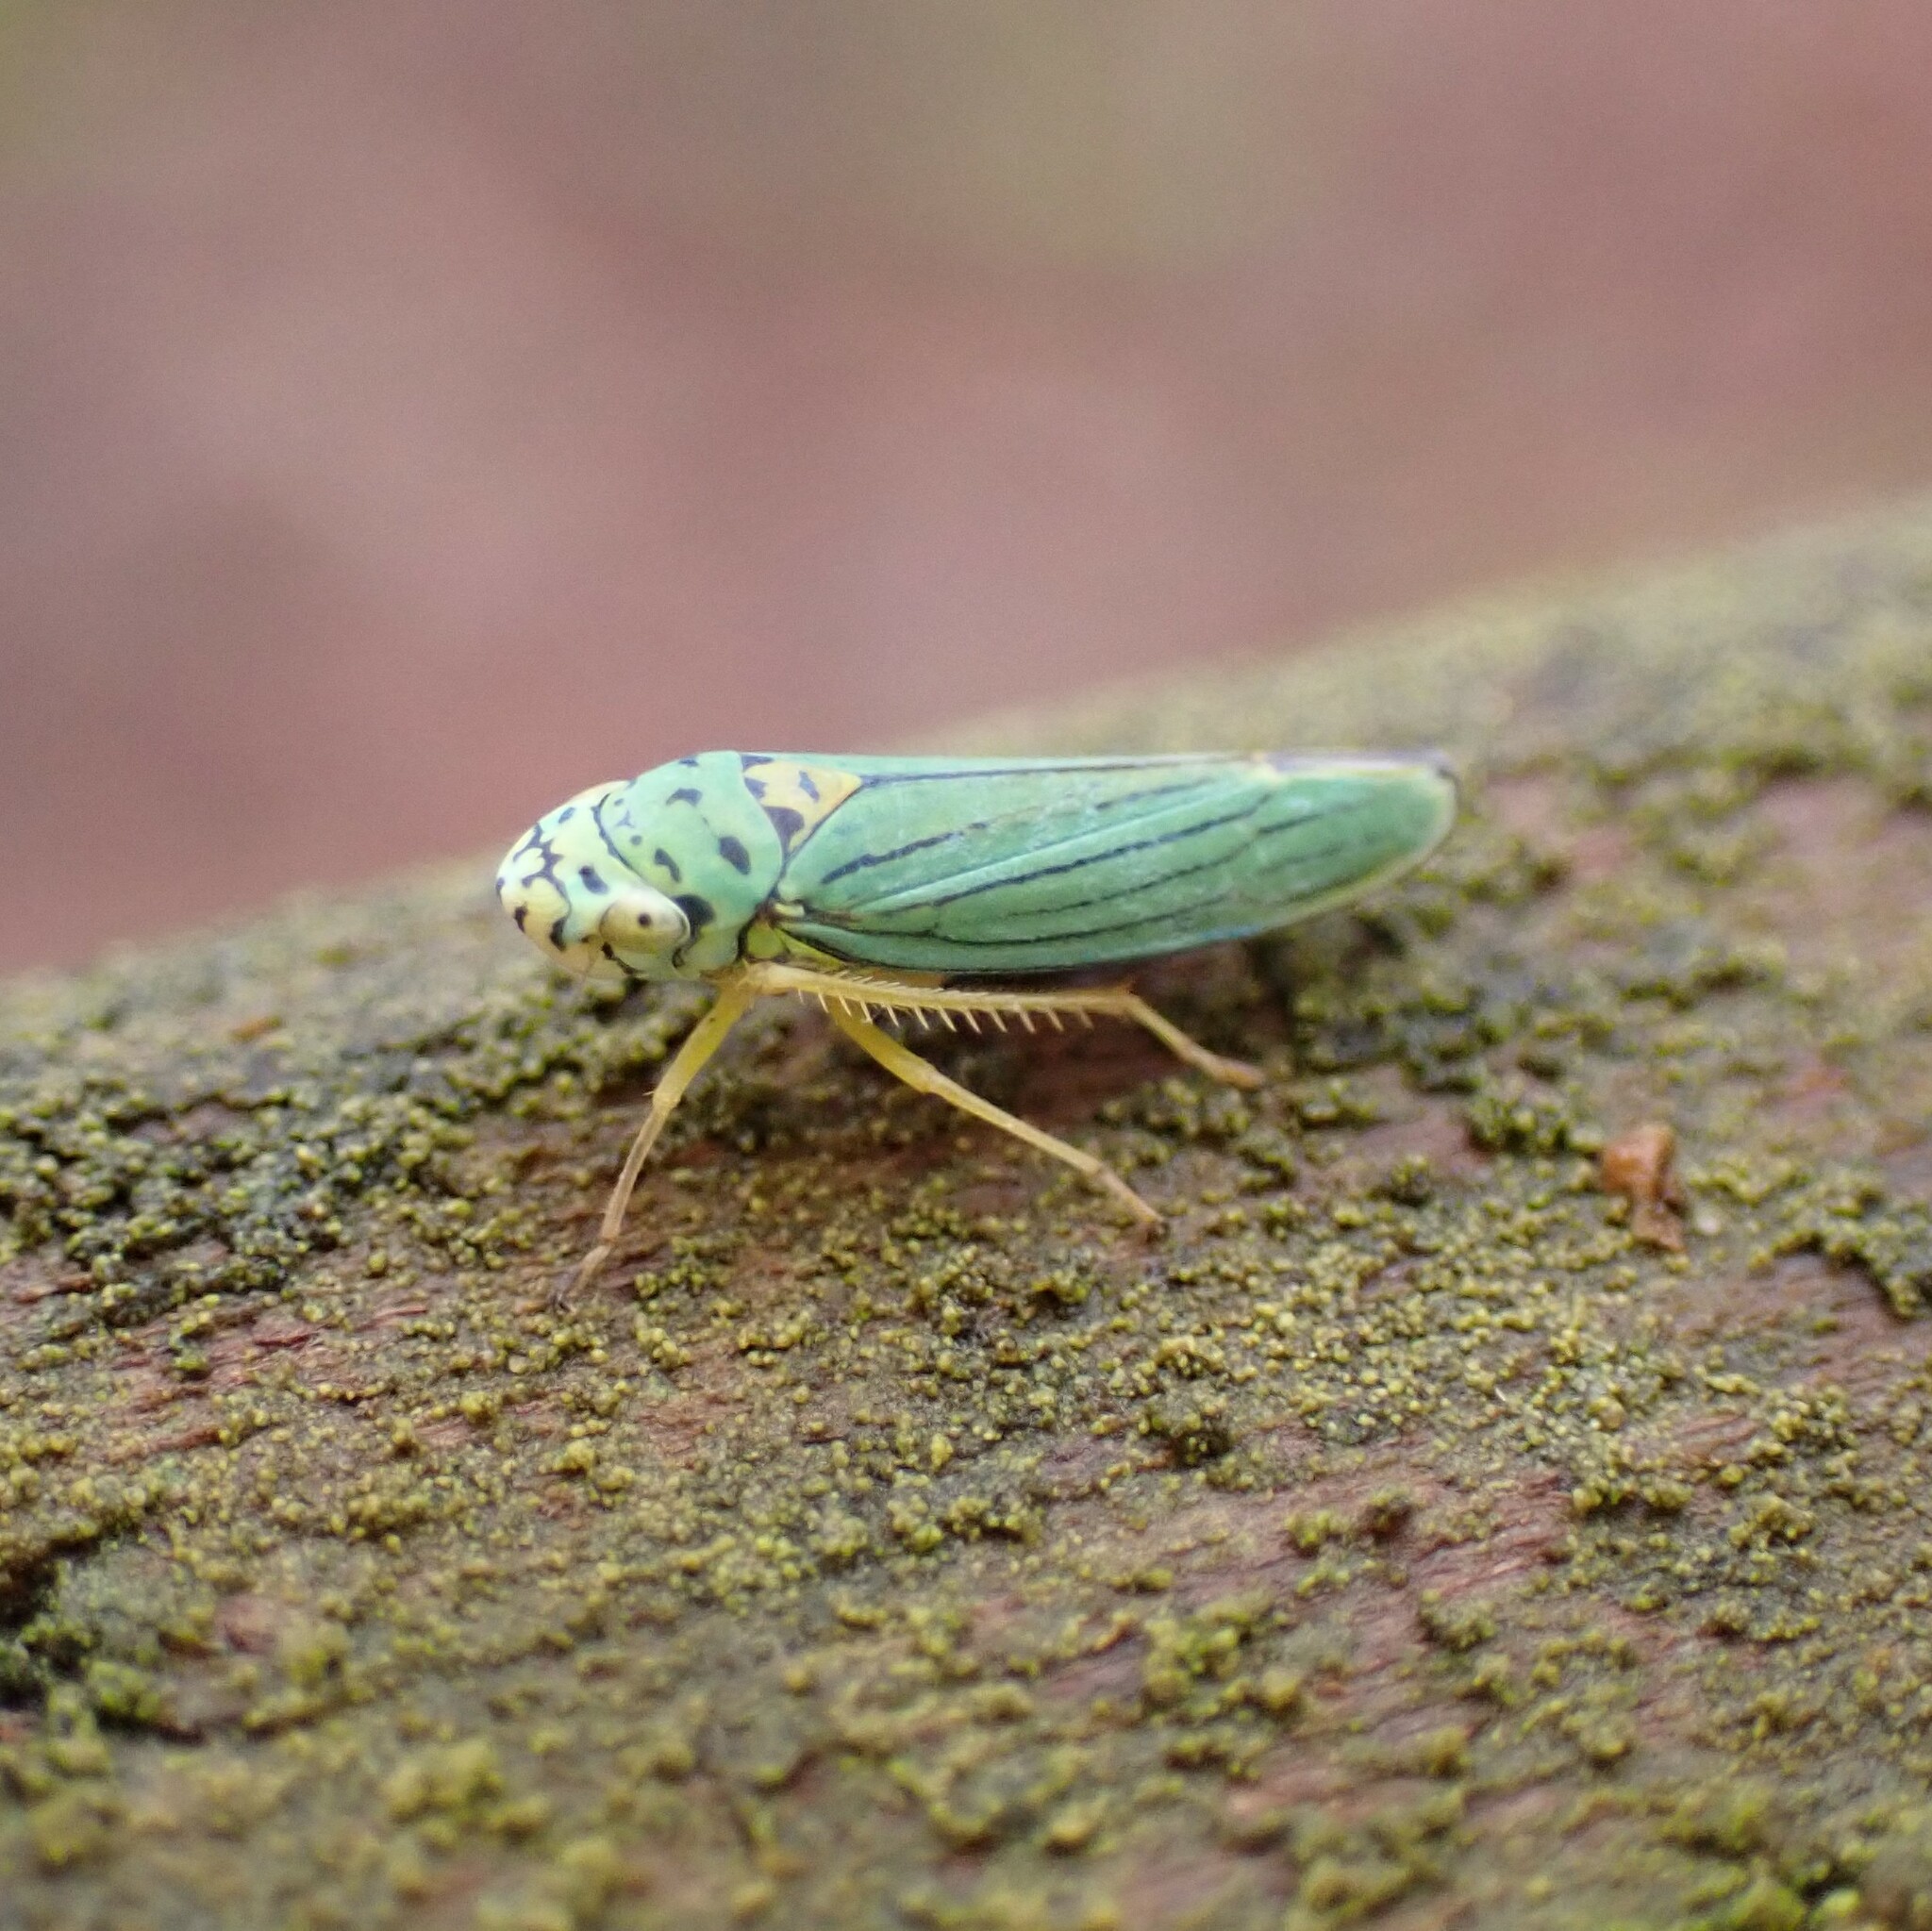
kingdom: Animalia
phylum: Arthropoda
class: Insecta
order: Hemiptera
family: Cicadellidae
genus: Graphocephala
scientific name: Graphocephala atropunctata
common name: Blue-green sharpshooter
